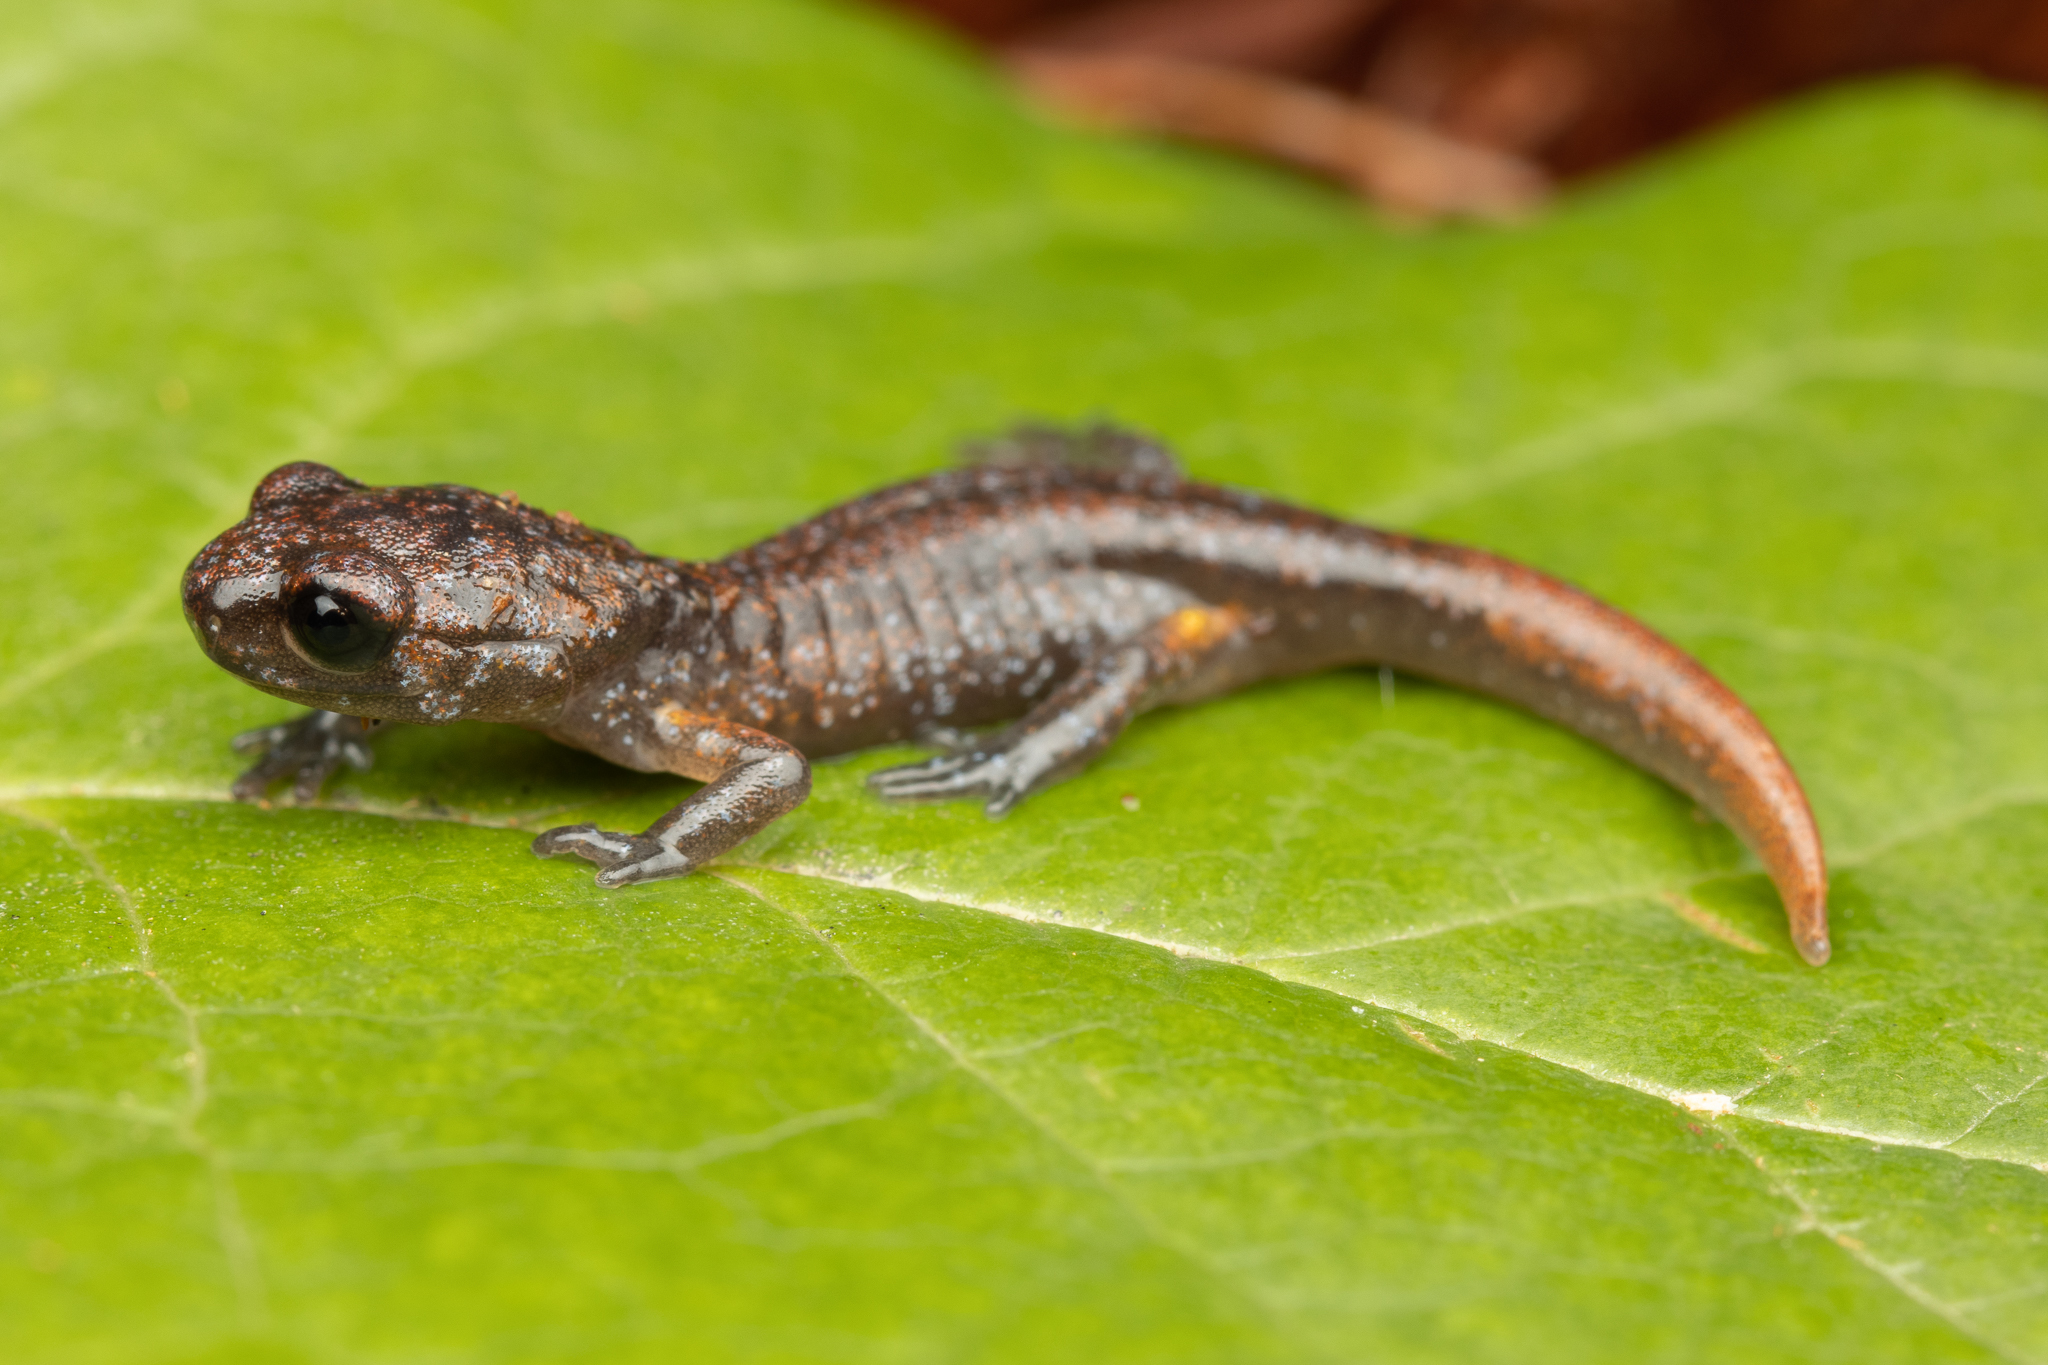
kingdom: Animalia
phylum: Chordata
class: Amphibia
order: Caudata
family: Plethodontidae
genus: Ensatina
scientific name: Ensatina eschscholtzii
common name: Ensatina
